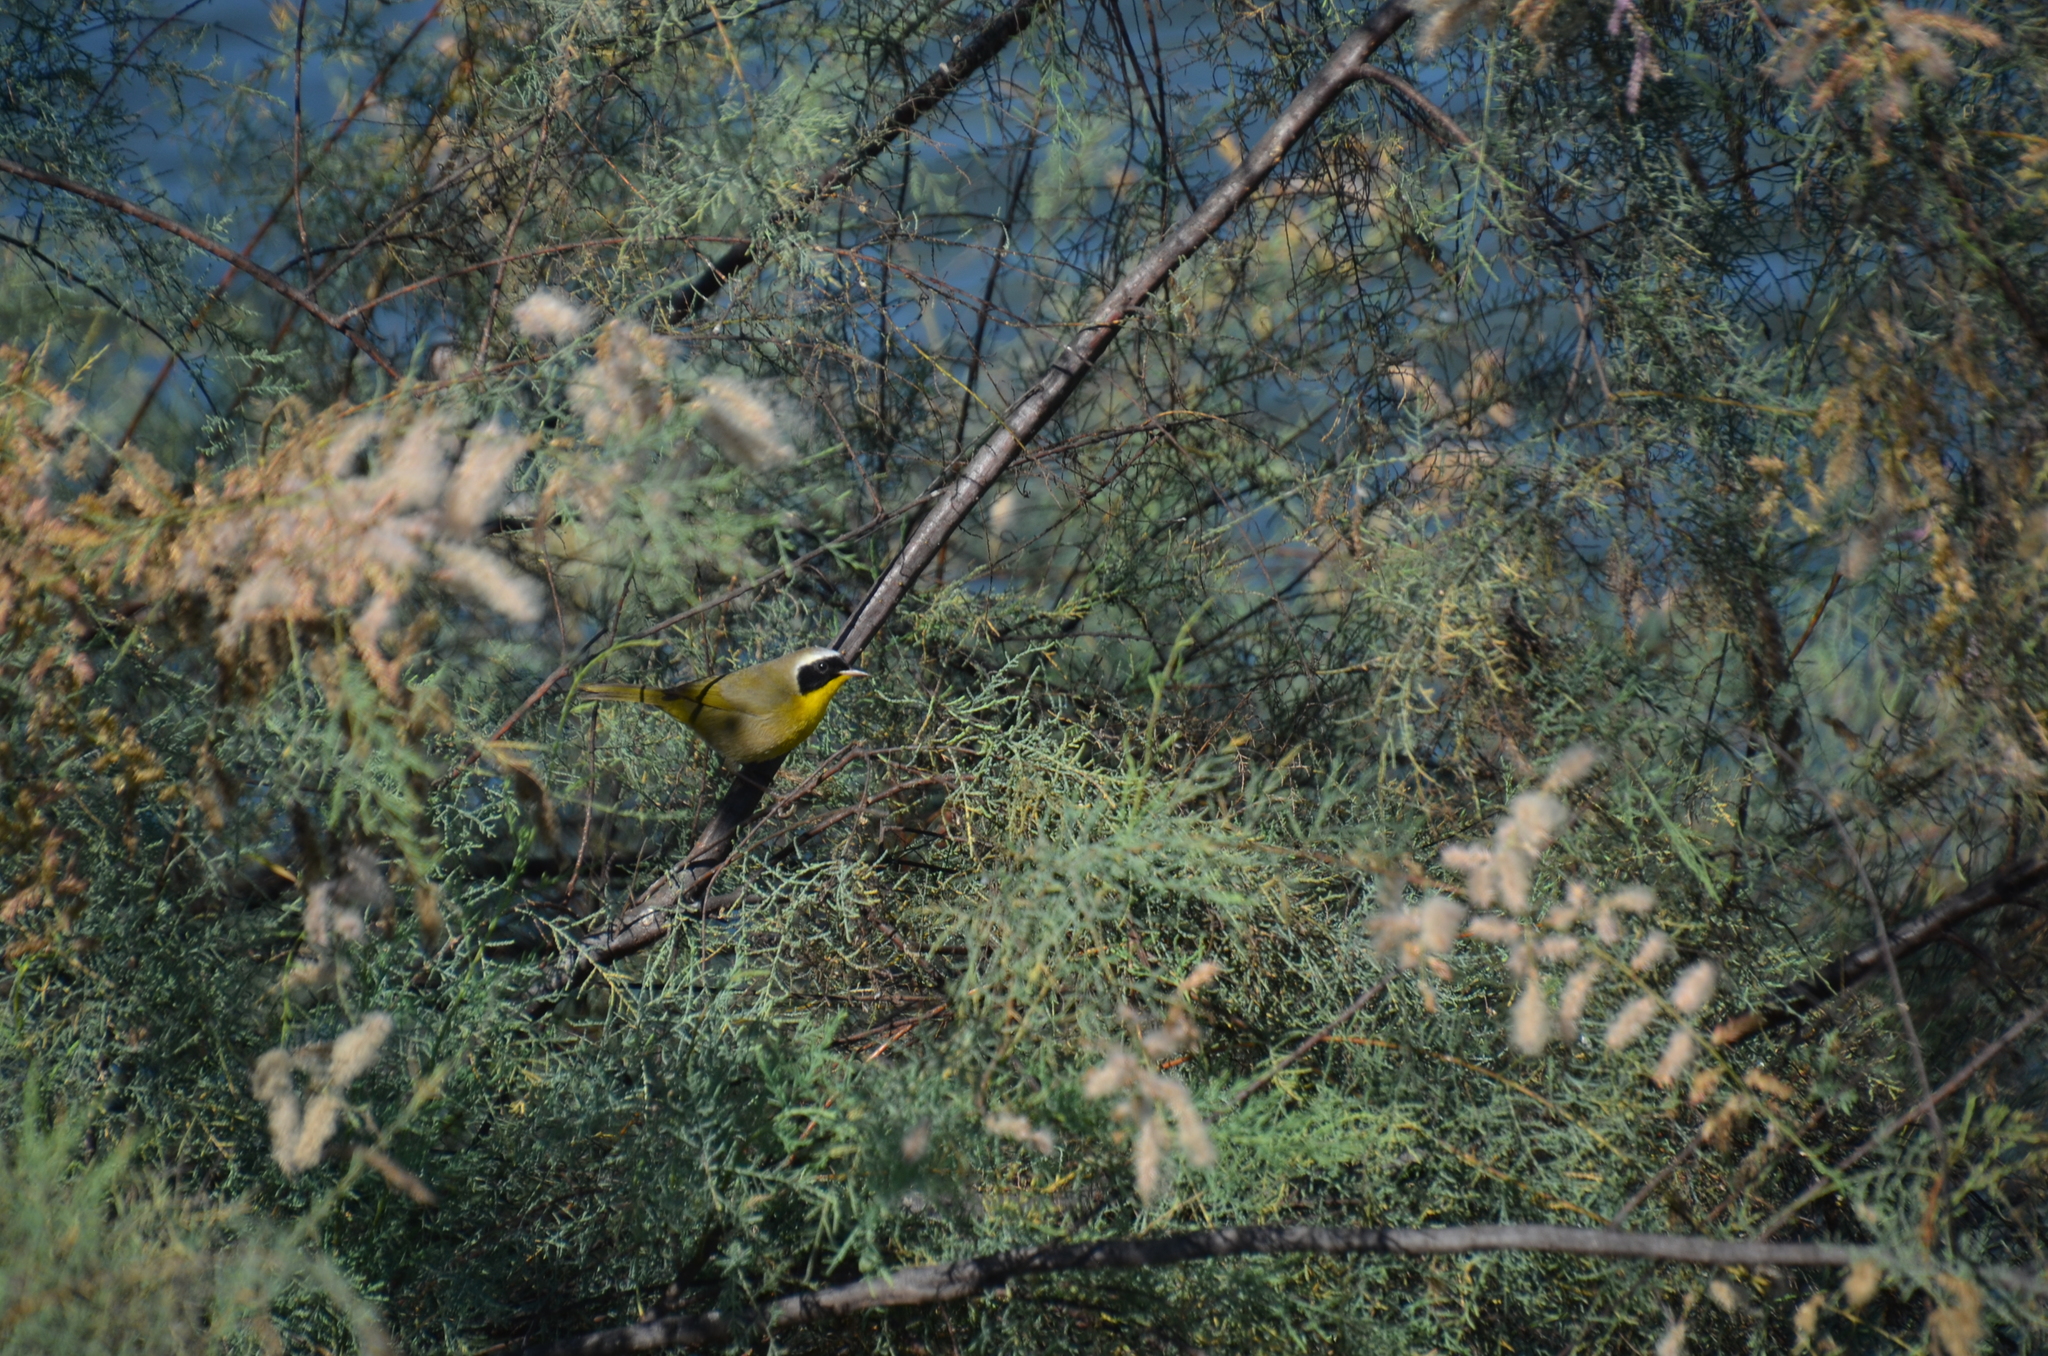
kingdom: Animalia
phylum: Chordata
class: Aves
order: Passeriformes
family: Parulidae
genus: Geothlypis
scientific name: Geothlypis trichas
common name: Common yellowthroat
